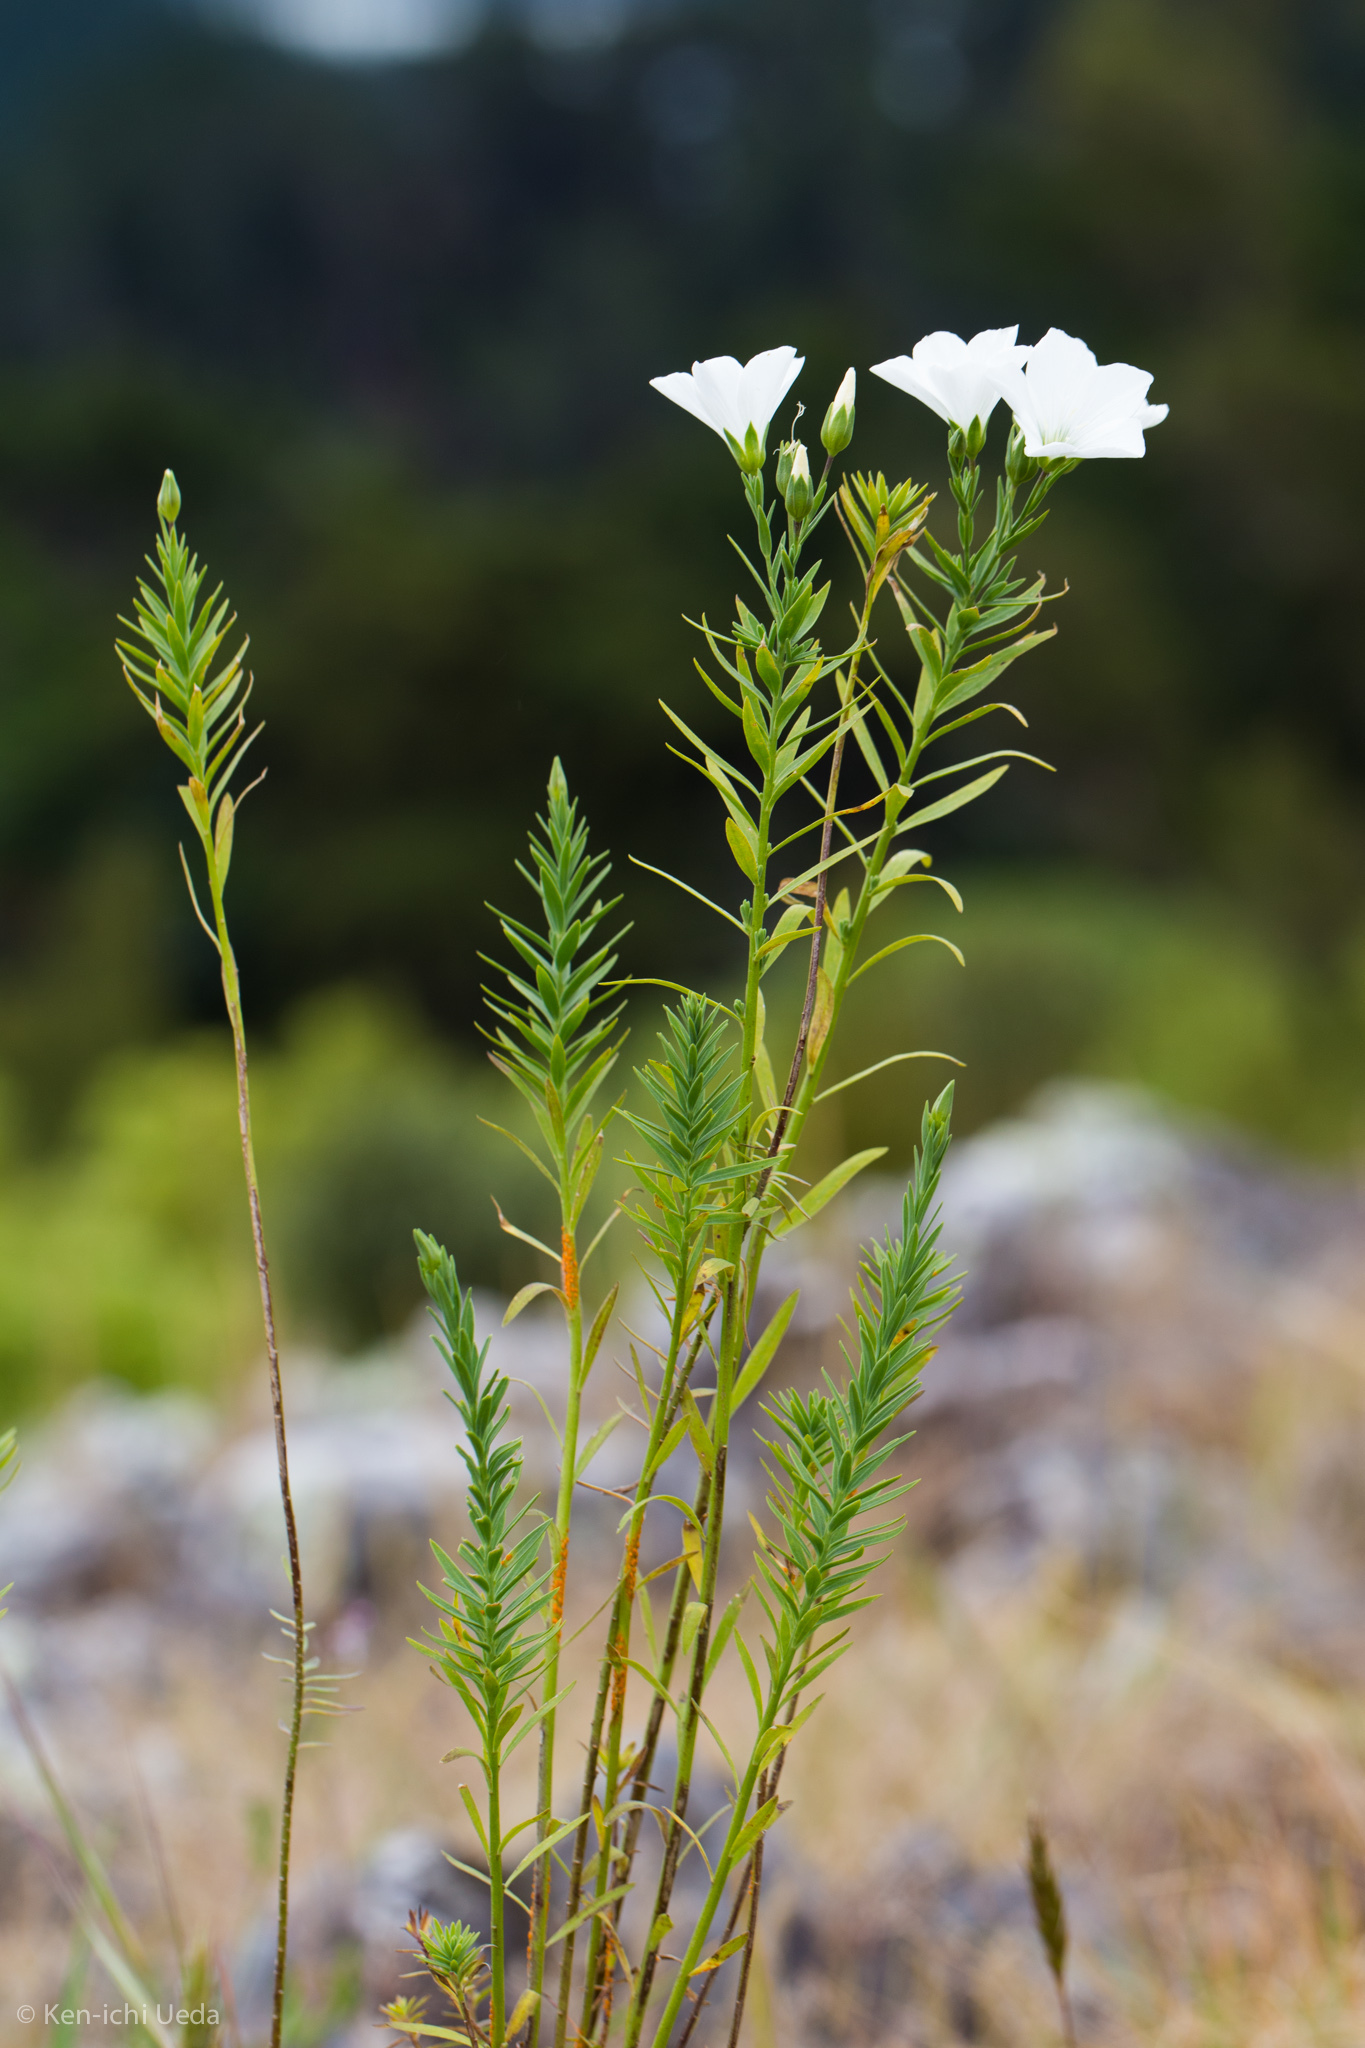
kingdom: Plantae
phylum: Tracheophyta
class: Magnoliopsida
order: Malpighiales
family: Linaceae
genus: Linum
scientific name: Linum monogynum
